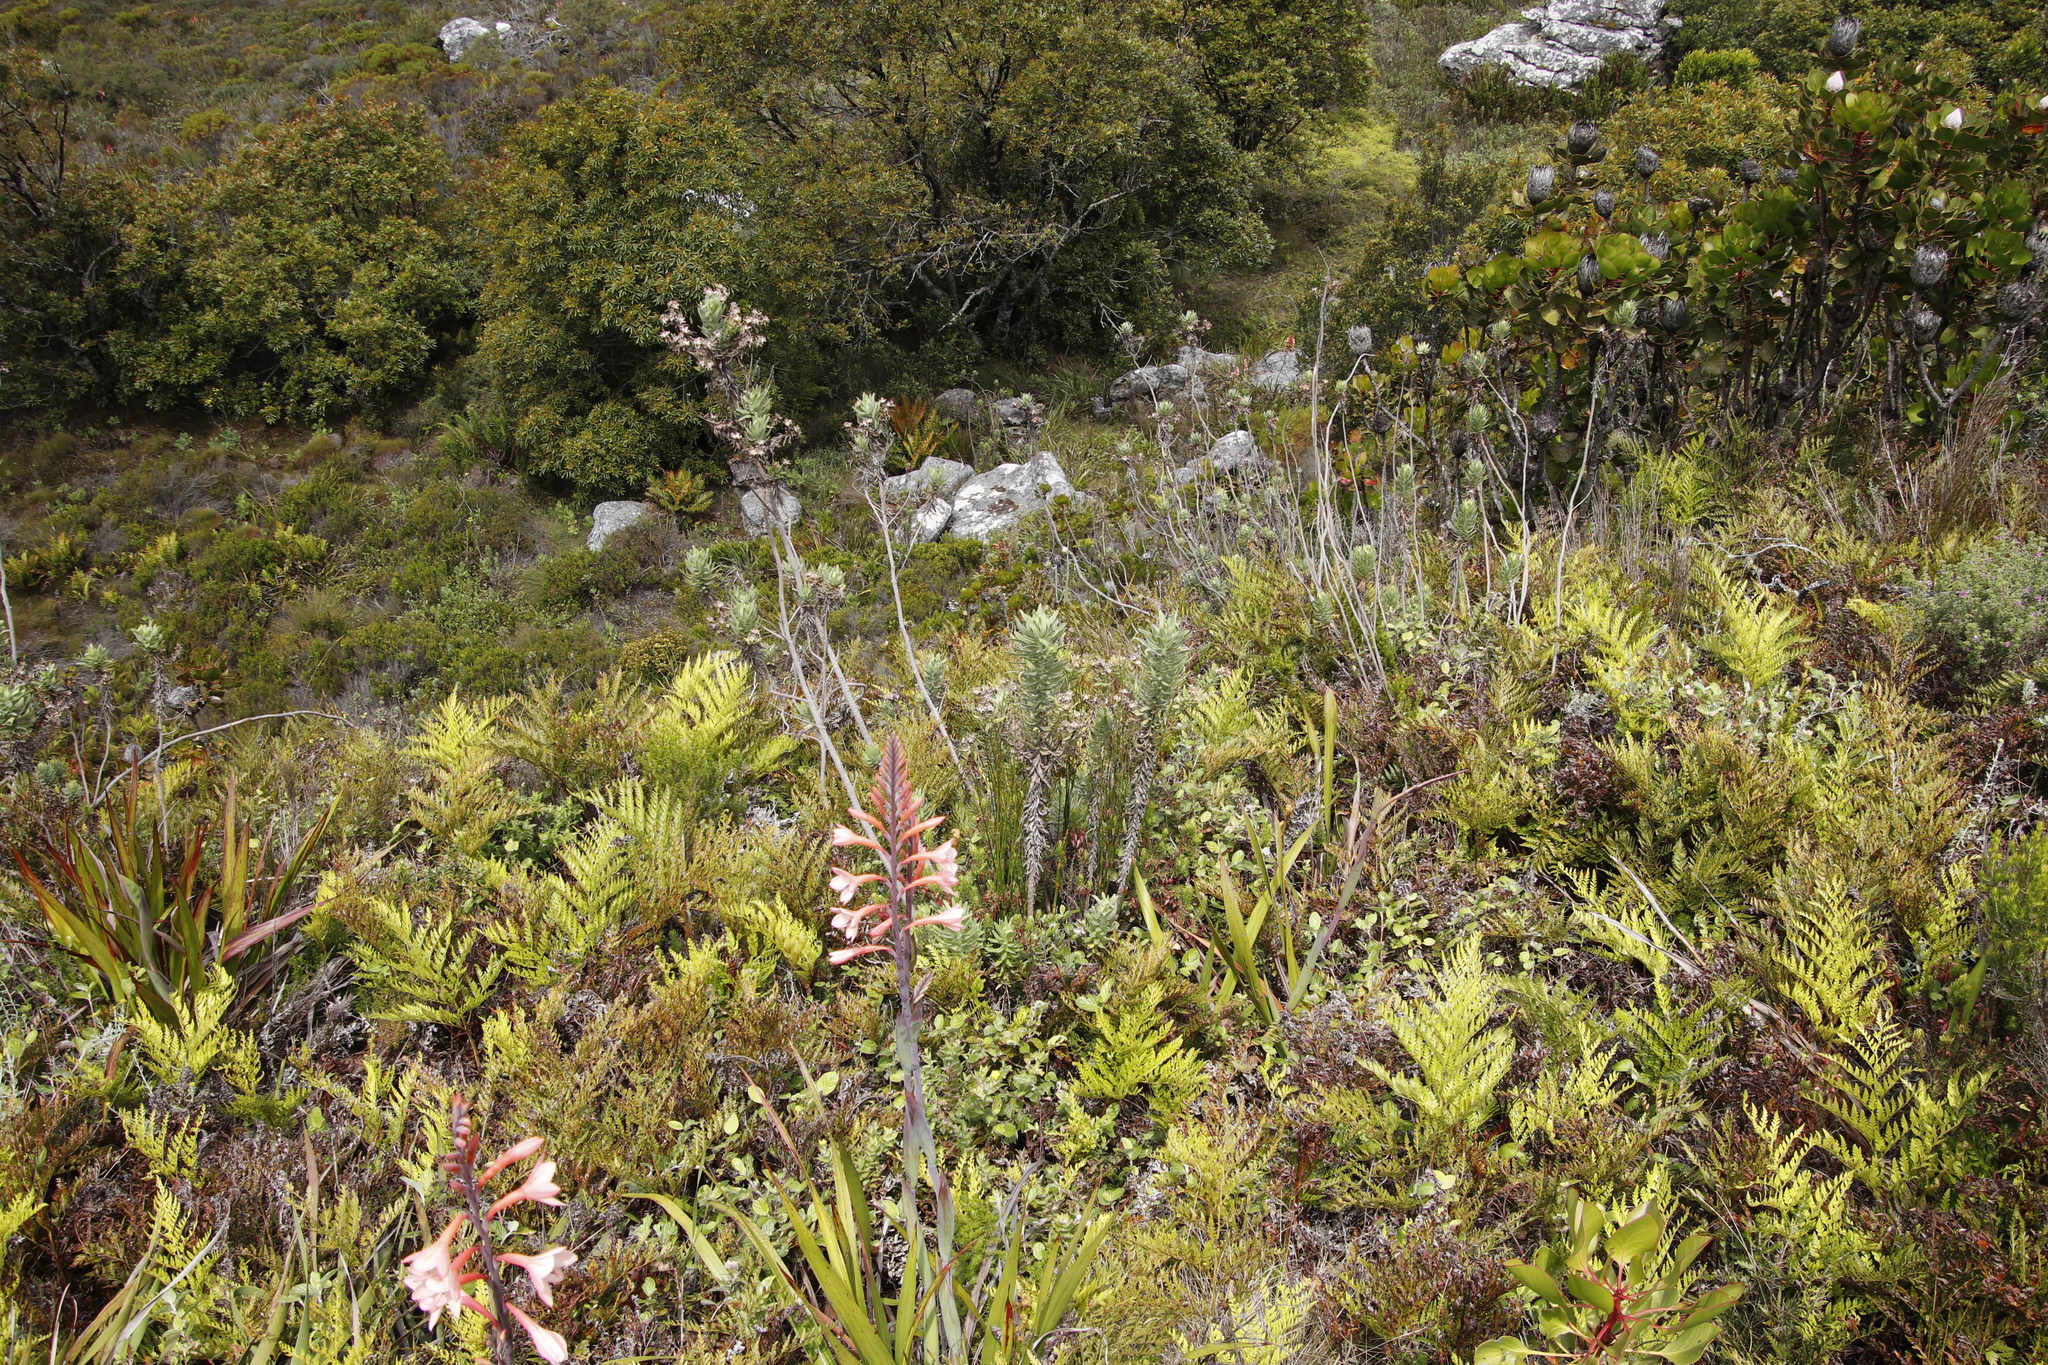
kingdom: Plantae
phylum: Tracheophyta
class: Magnoliopsida
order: Asterales
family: Asteraceae
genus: Osmitopsis
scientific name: Osmitopsis asteriscoides
